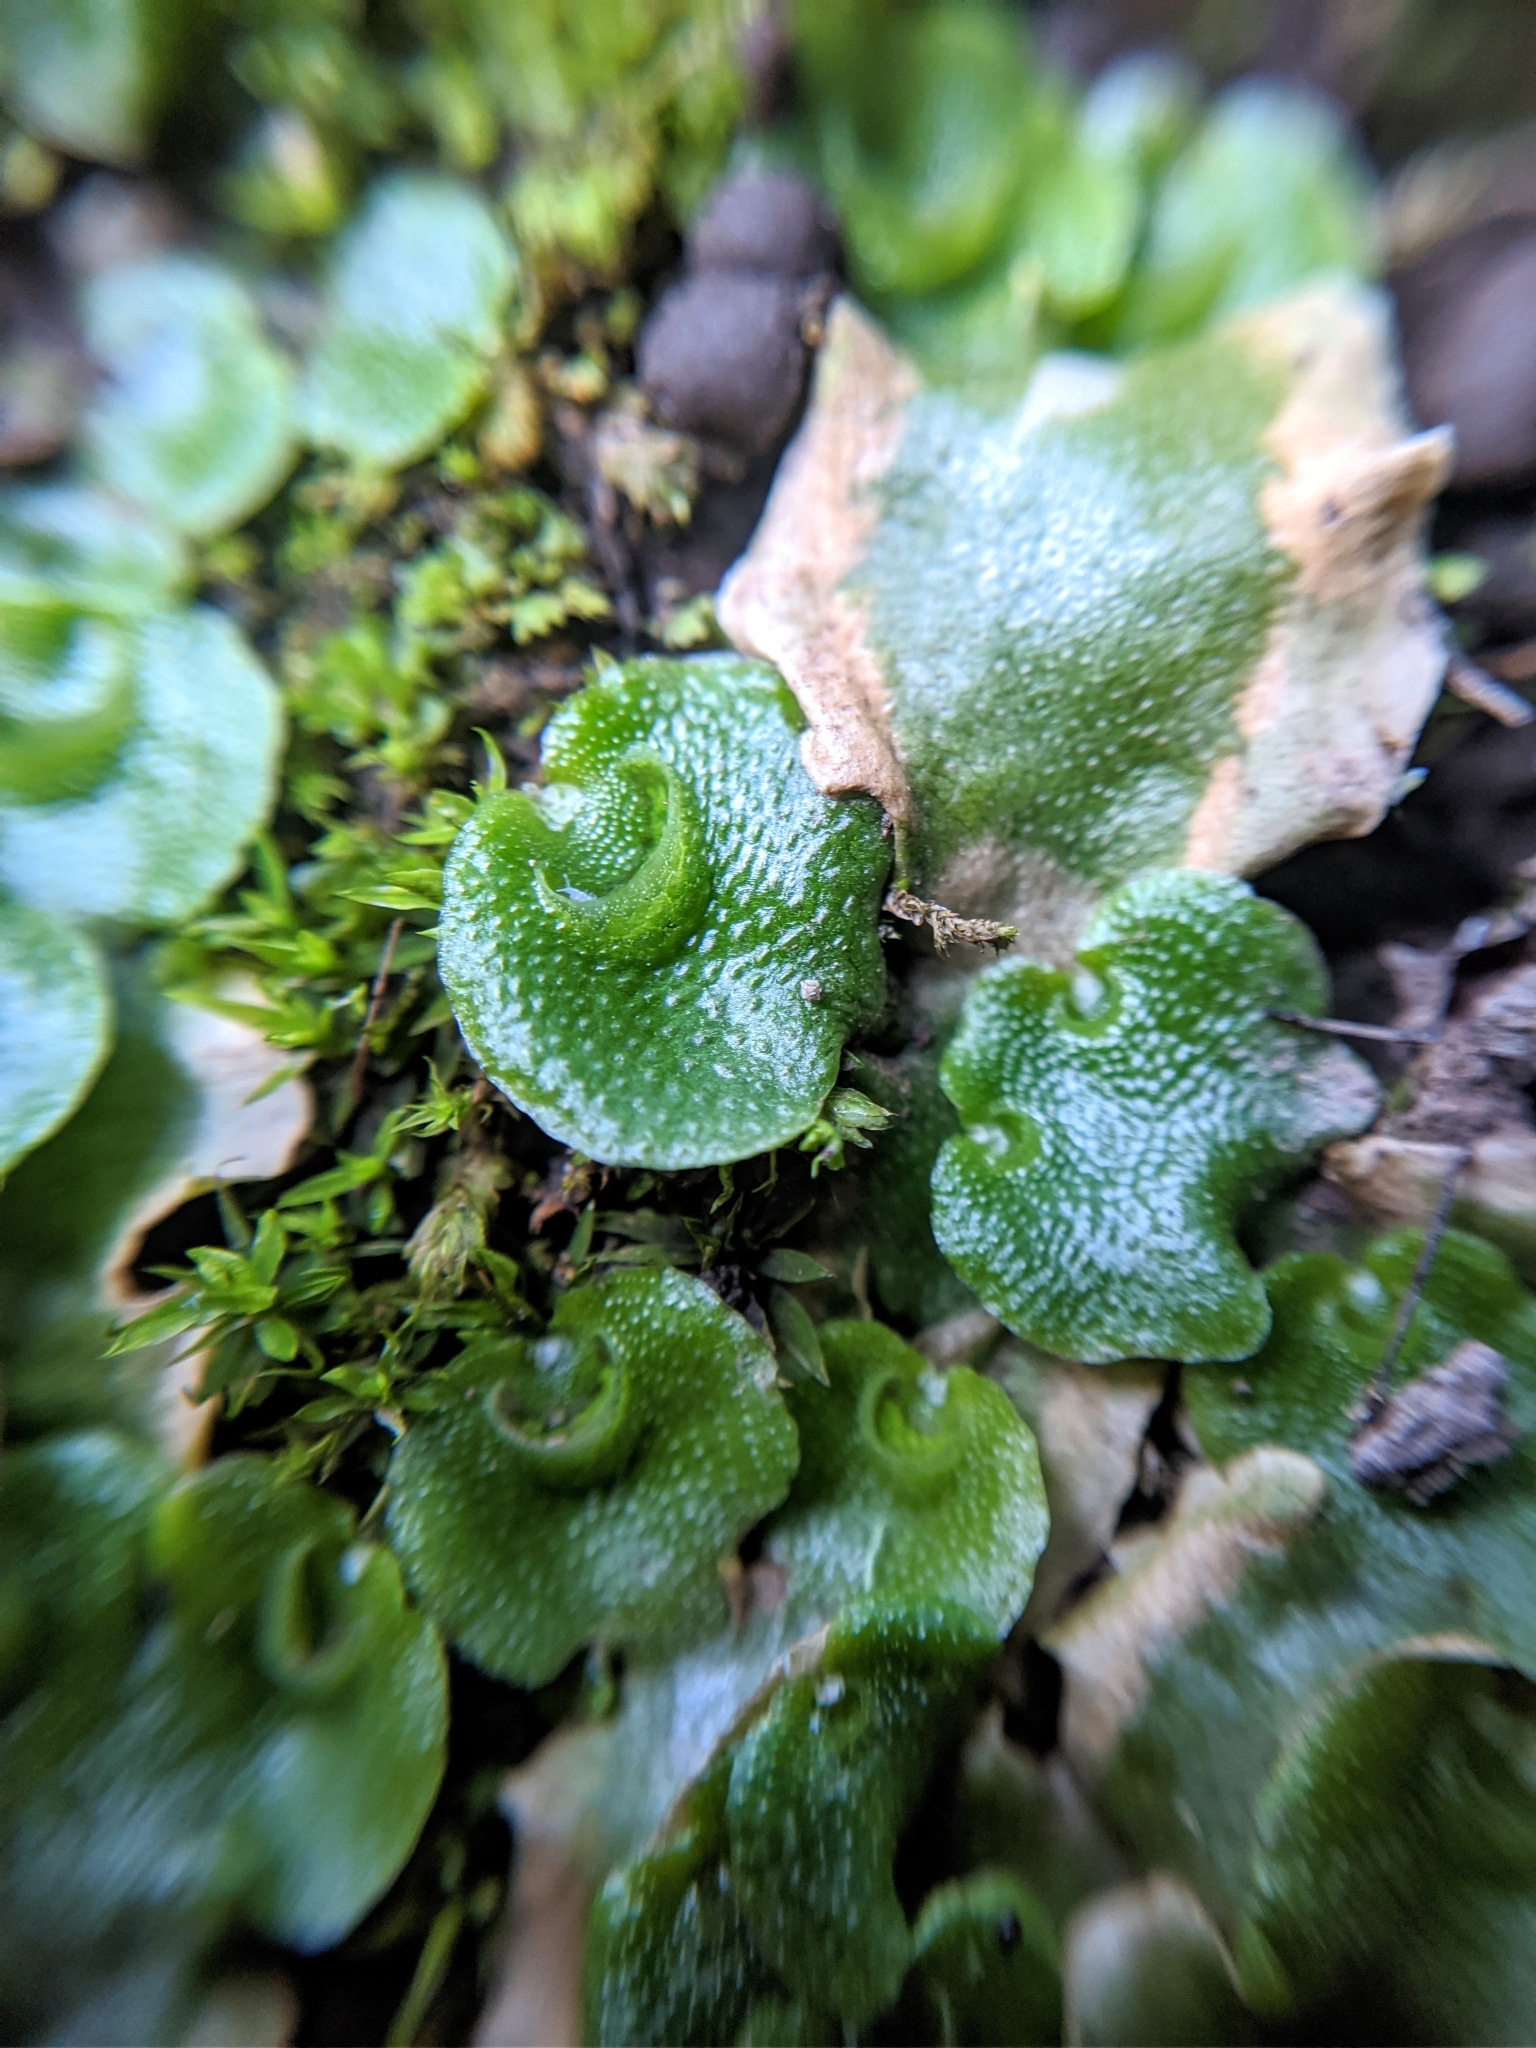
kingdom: Plantae
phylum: Marchantiophyta
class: Marchantiopsida
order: Lunulariales
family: Lunulariaceae
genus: Lunularia
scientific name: Lunularia cruciata
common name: Crescent-cup liverwort
